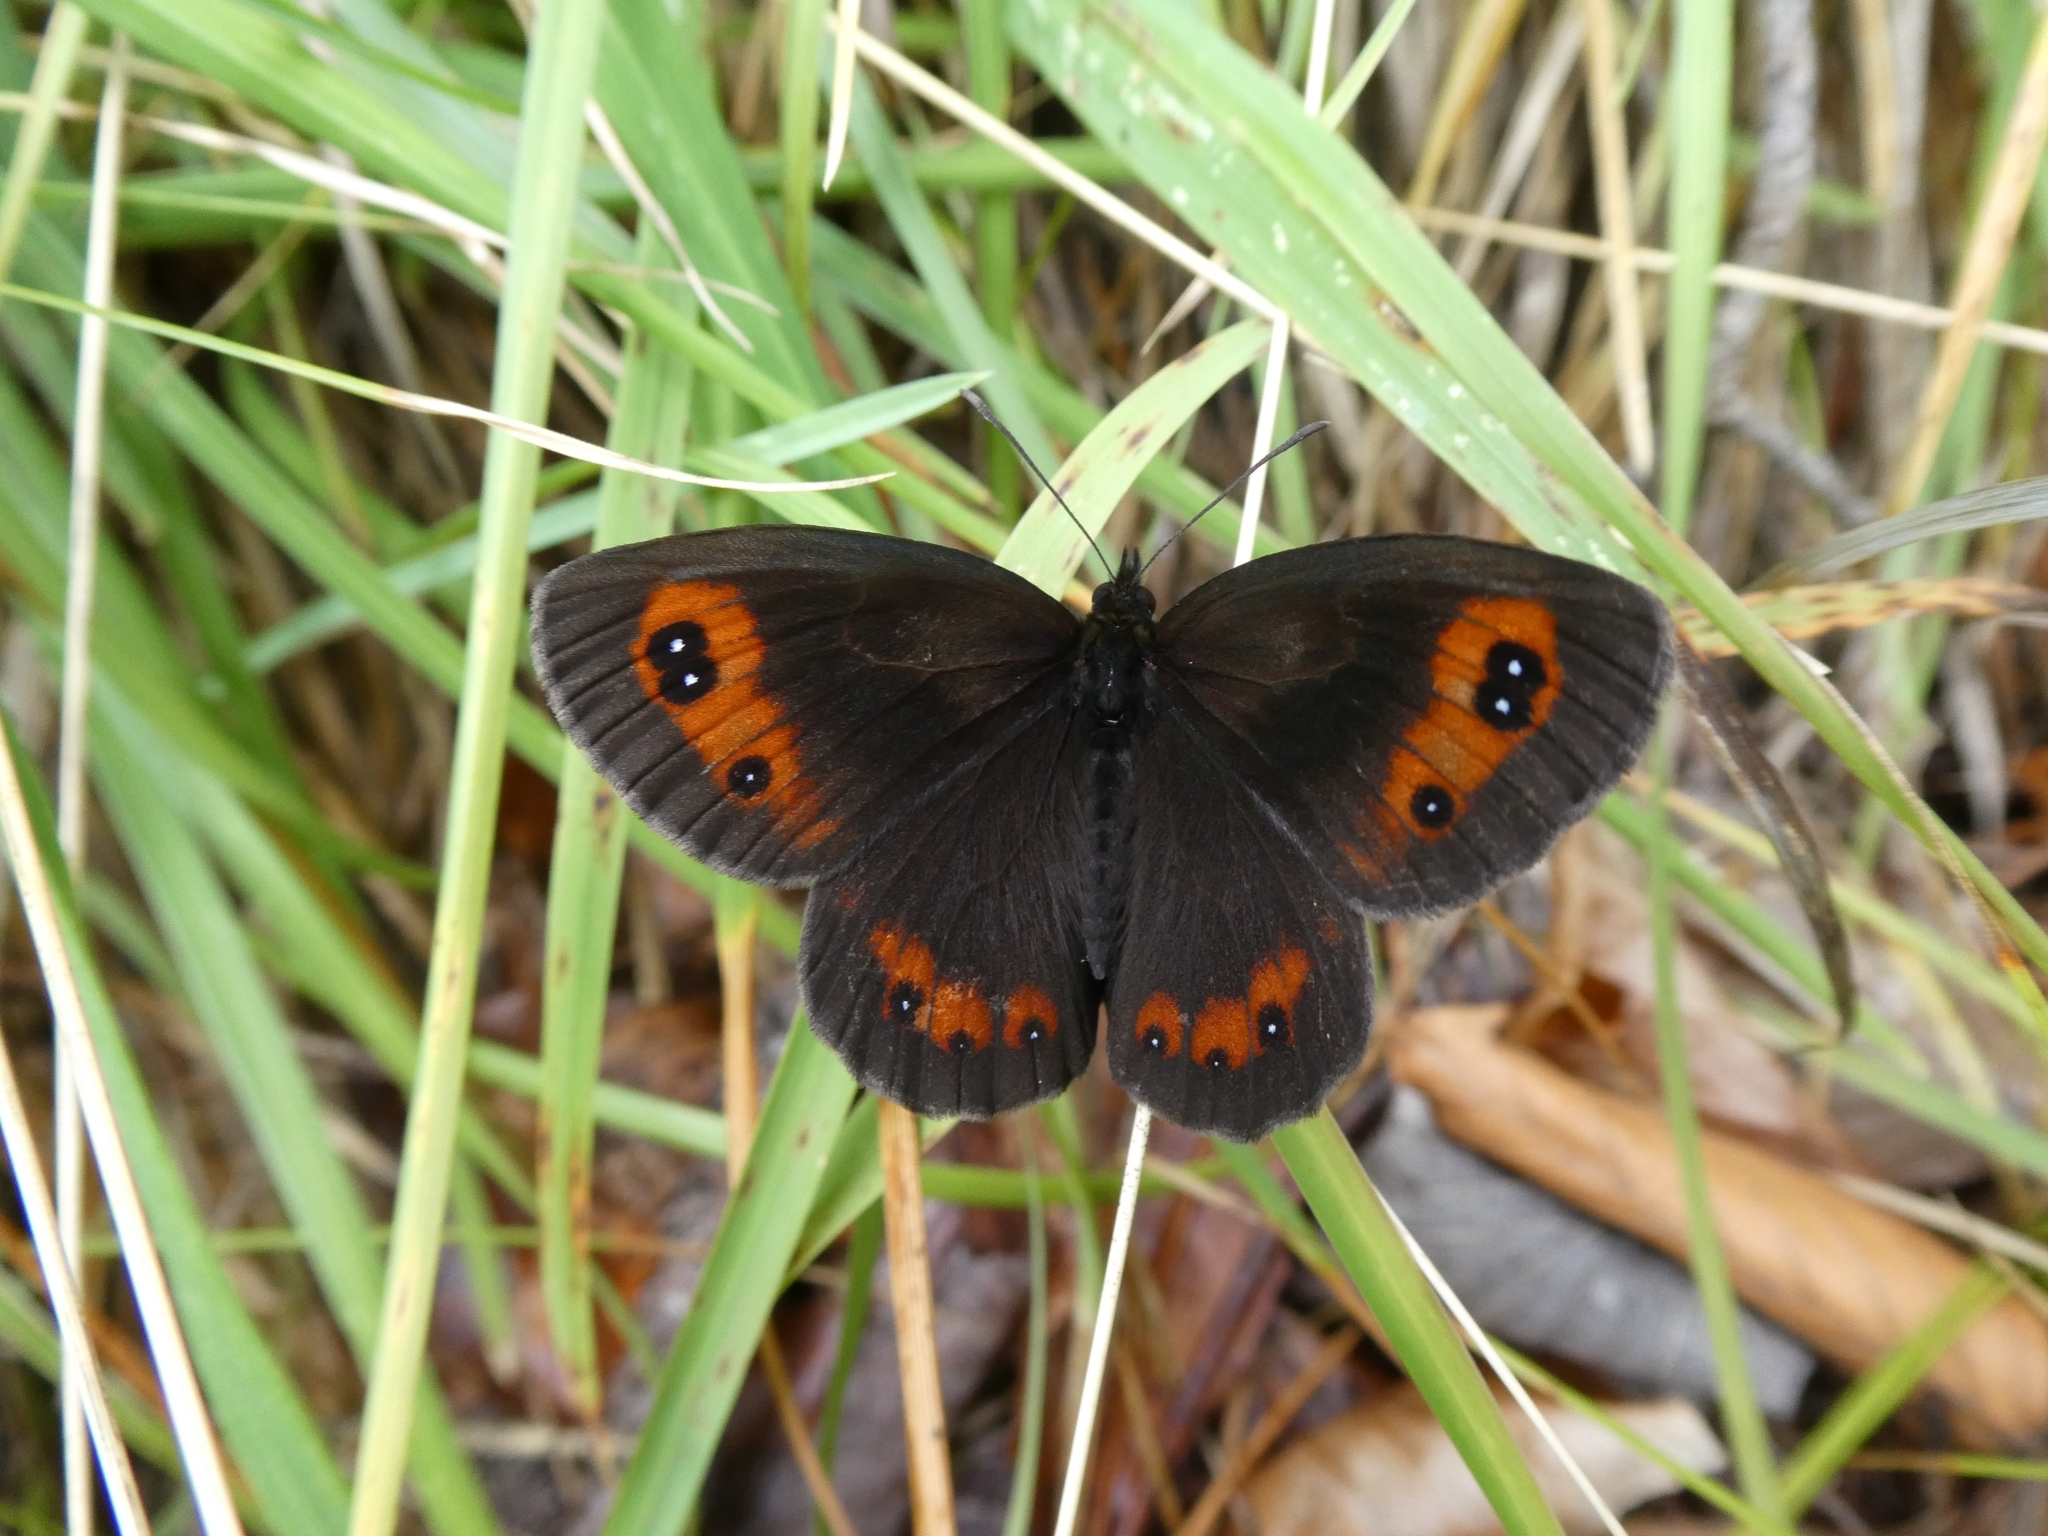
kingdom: Animalia
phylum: Arthropoda
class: Insecta
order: Lepidoptera
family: Nymphalidae
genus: Erebia
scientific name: Erebia aethiops
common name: Scotch argus
